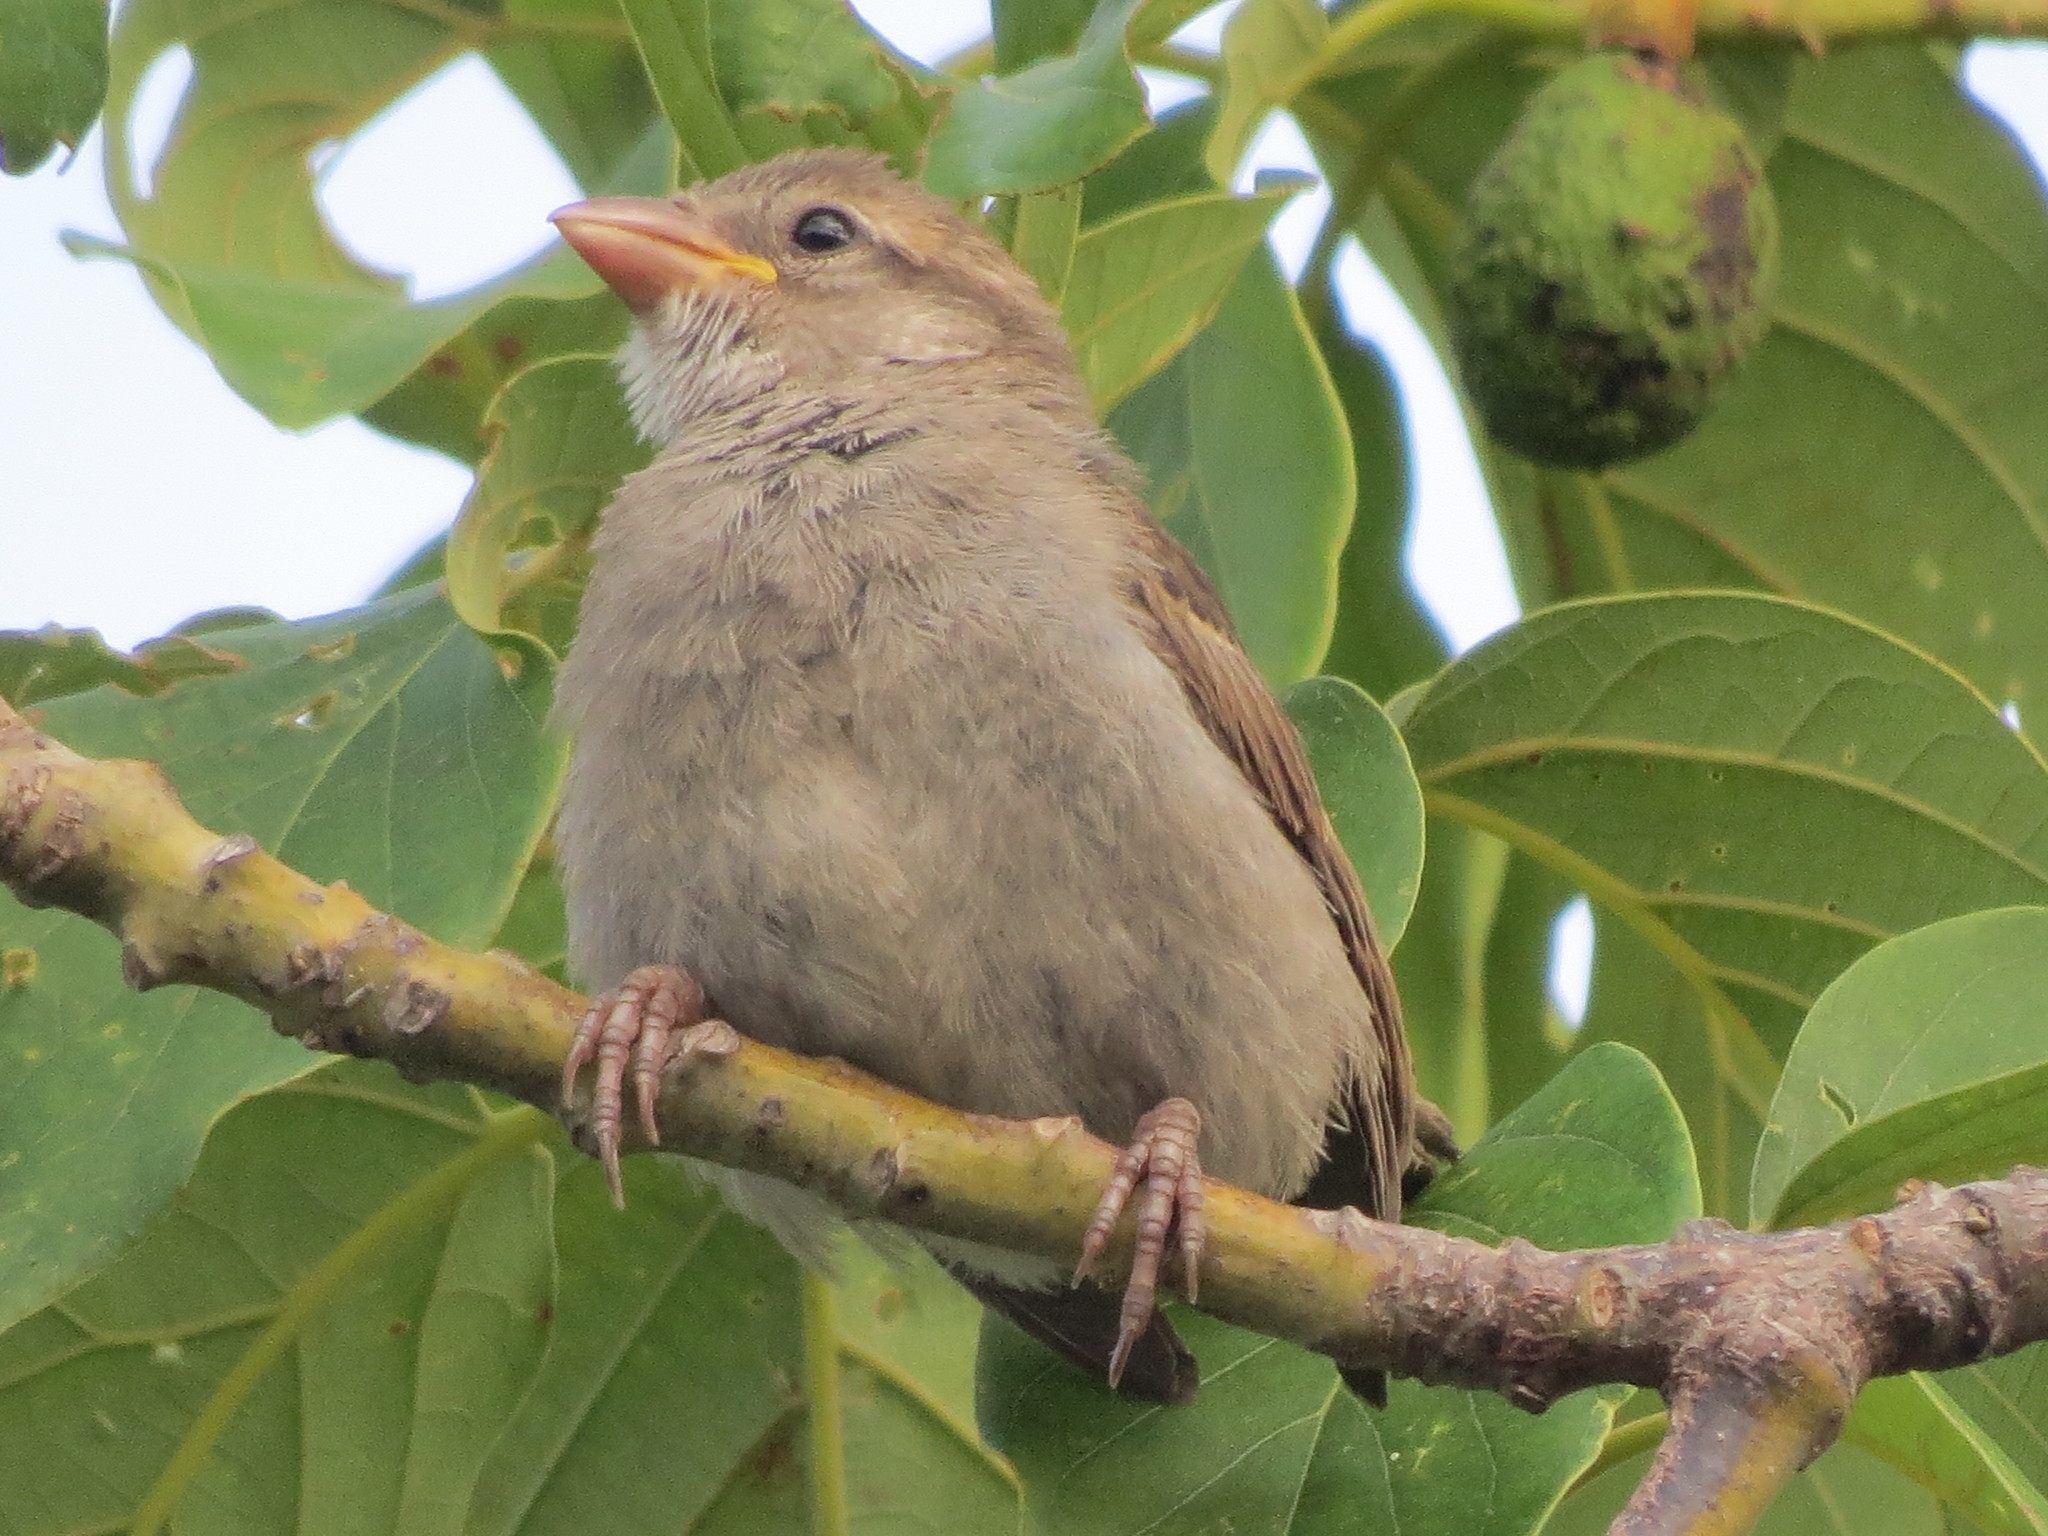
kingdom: Animalia
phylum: Chordata
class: Aves
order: Passeriformes
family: Passeridae
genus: Passer
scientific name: Passer domesticus
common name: House sparrow
